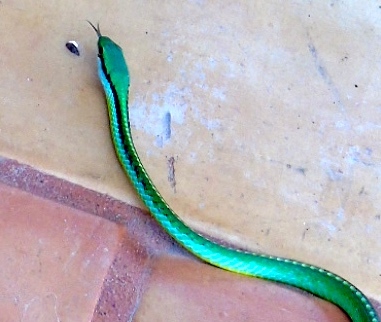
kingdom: Animalia
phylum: Chordata
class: Squamata
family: Colubridae
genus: Leptophis
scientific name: Leptophis diplotropis
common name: Pacific coast parrot snake
